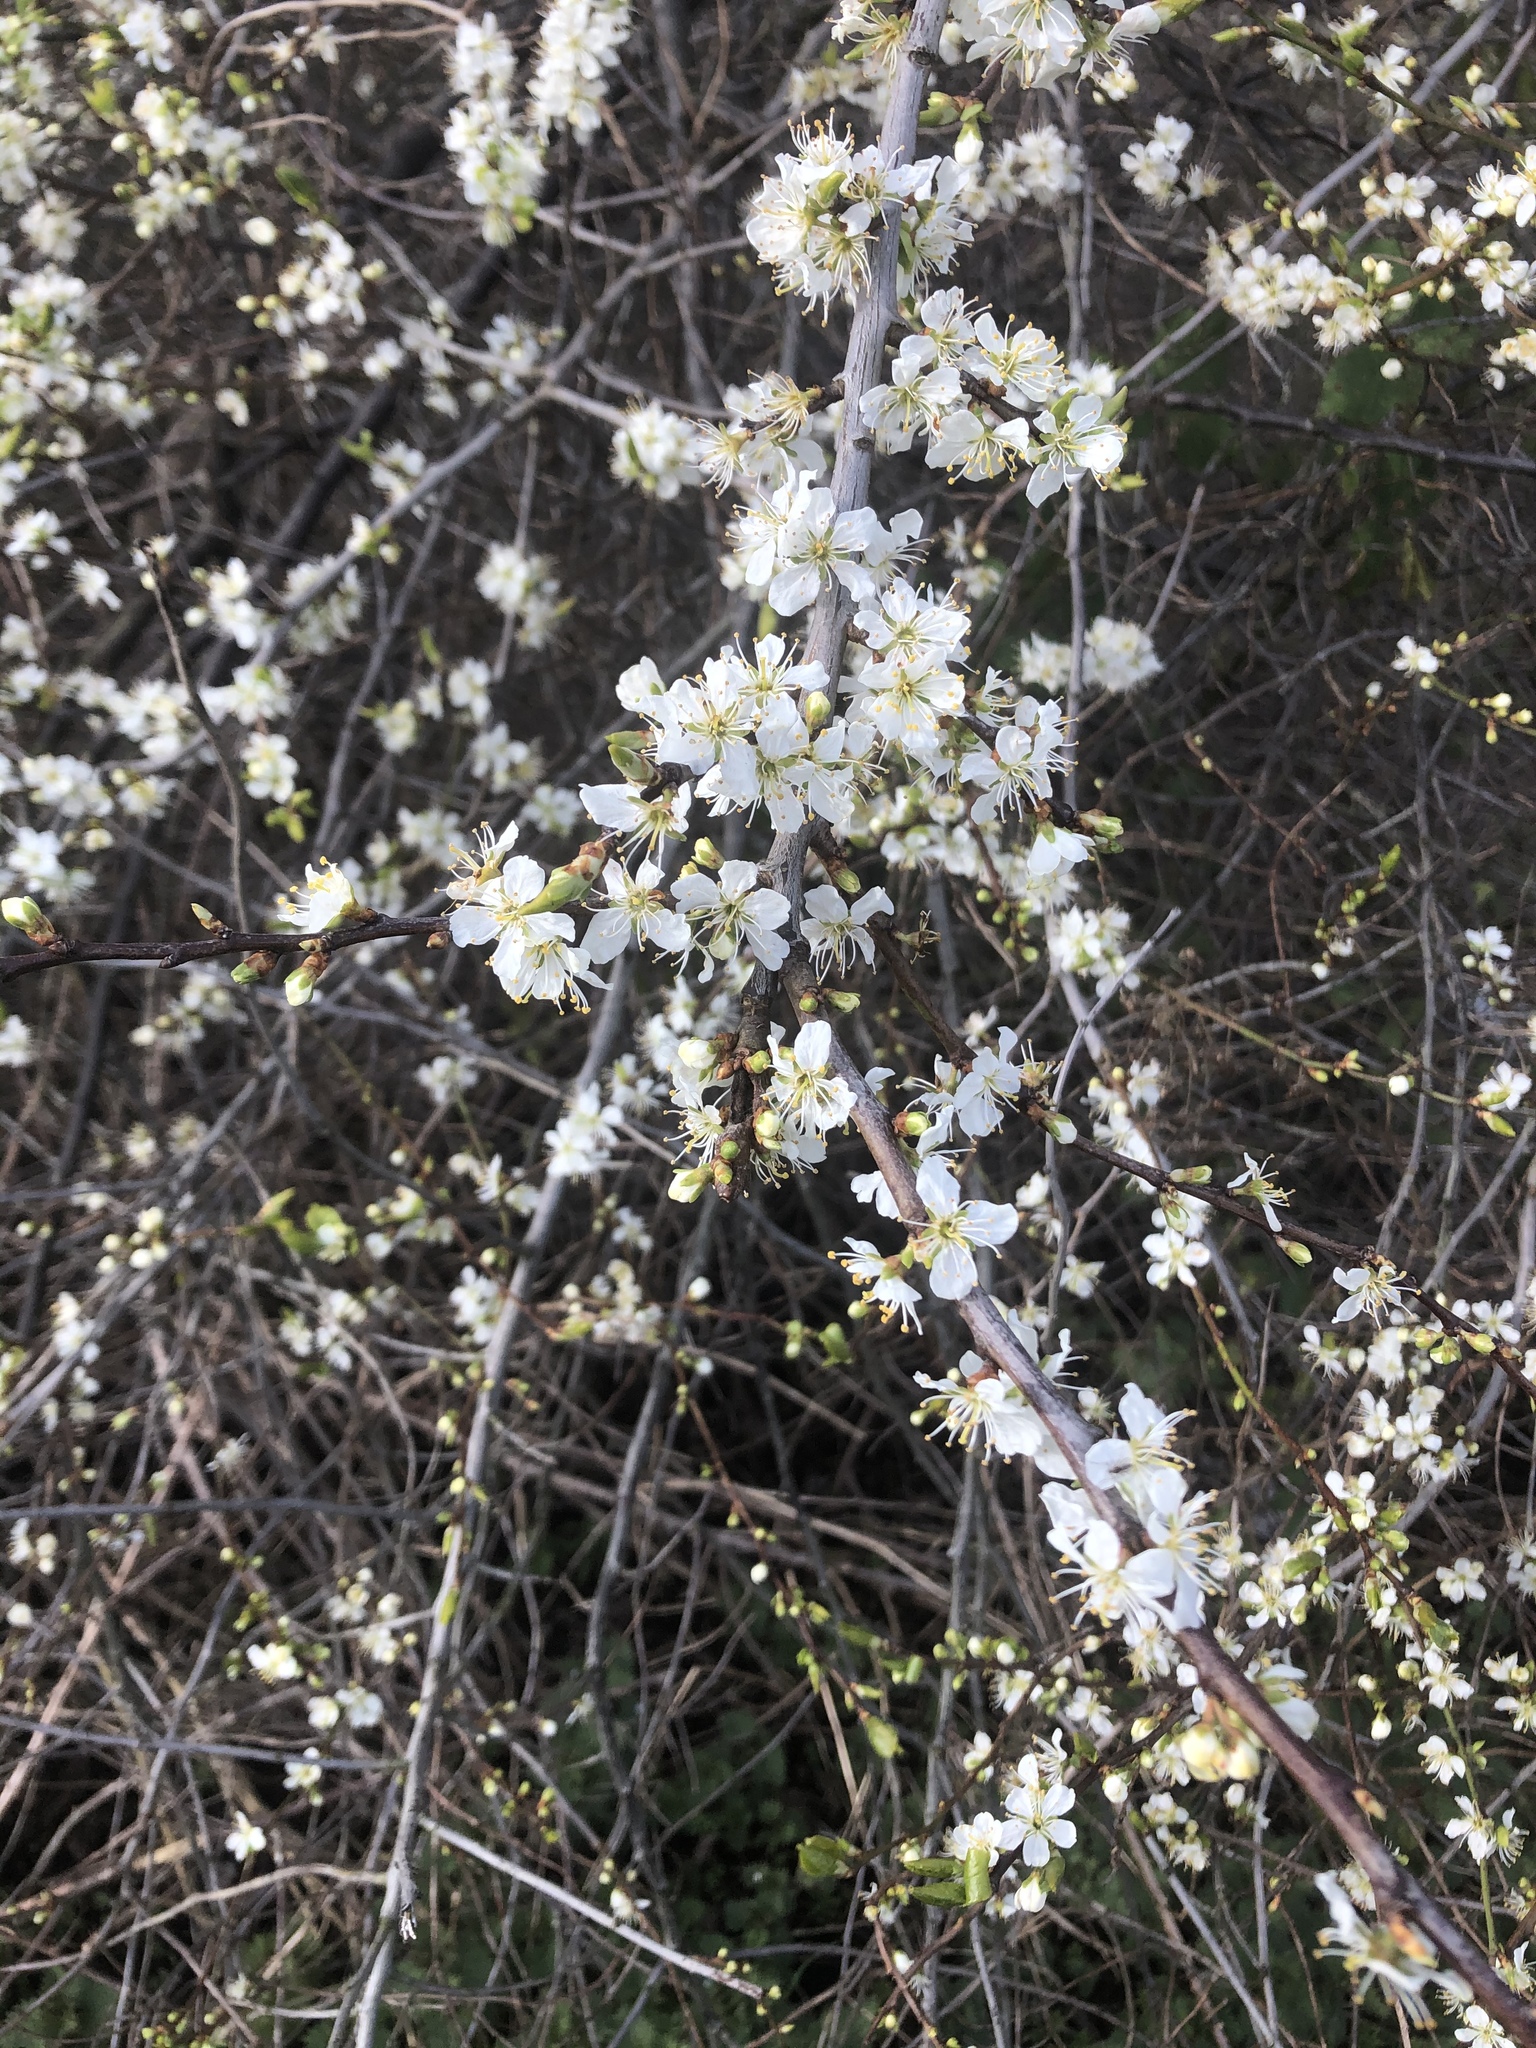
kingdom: Plantae
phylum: Tracheophyta
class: Magnoliopsida
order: Rosales
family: Rosaceae
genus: Prunus
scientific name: Prunus spinosa
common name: Blackthorn
